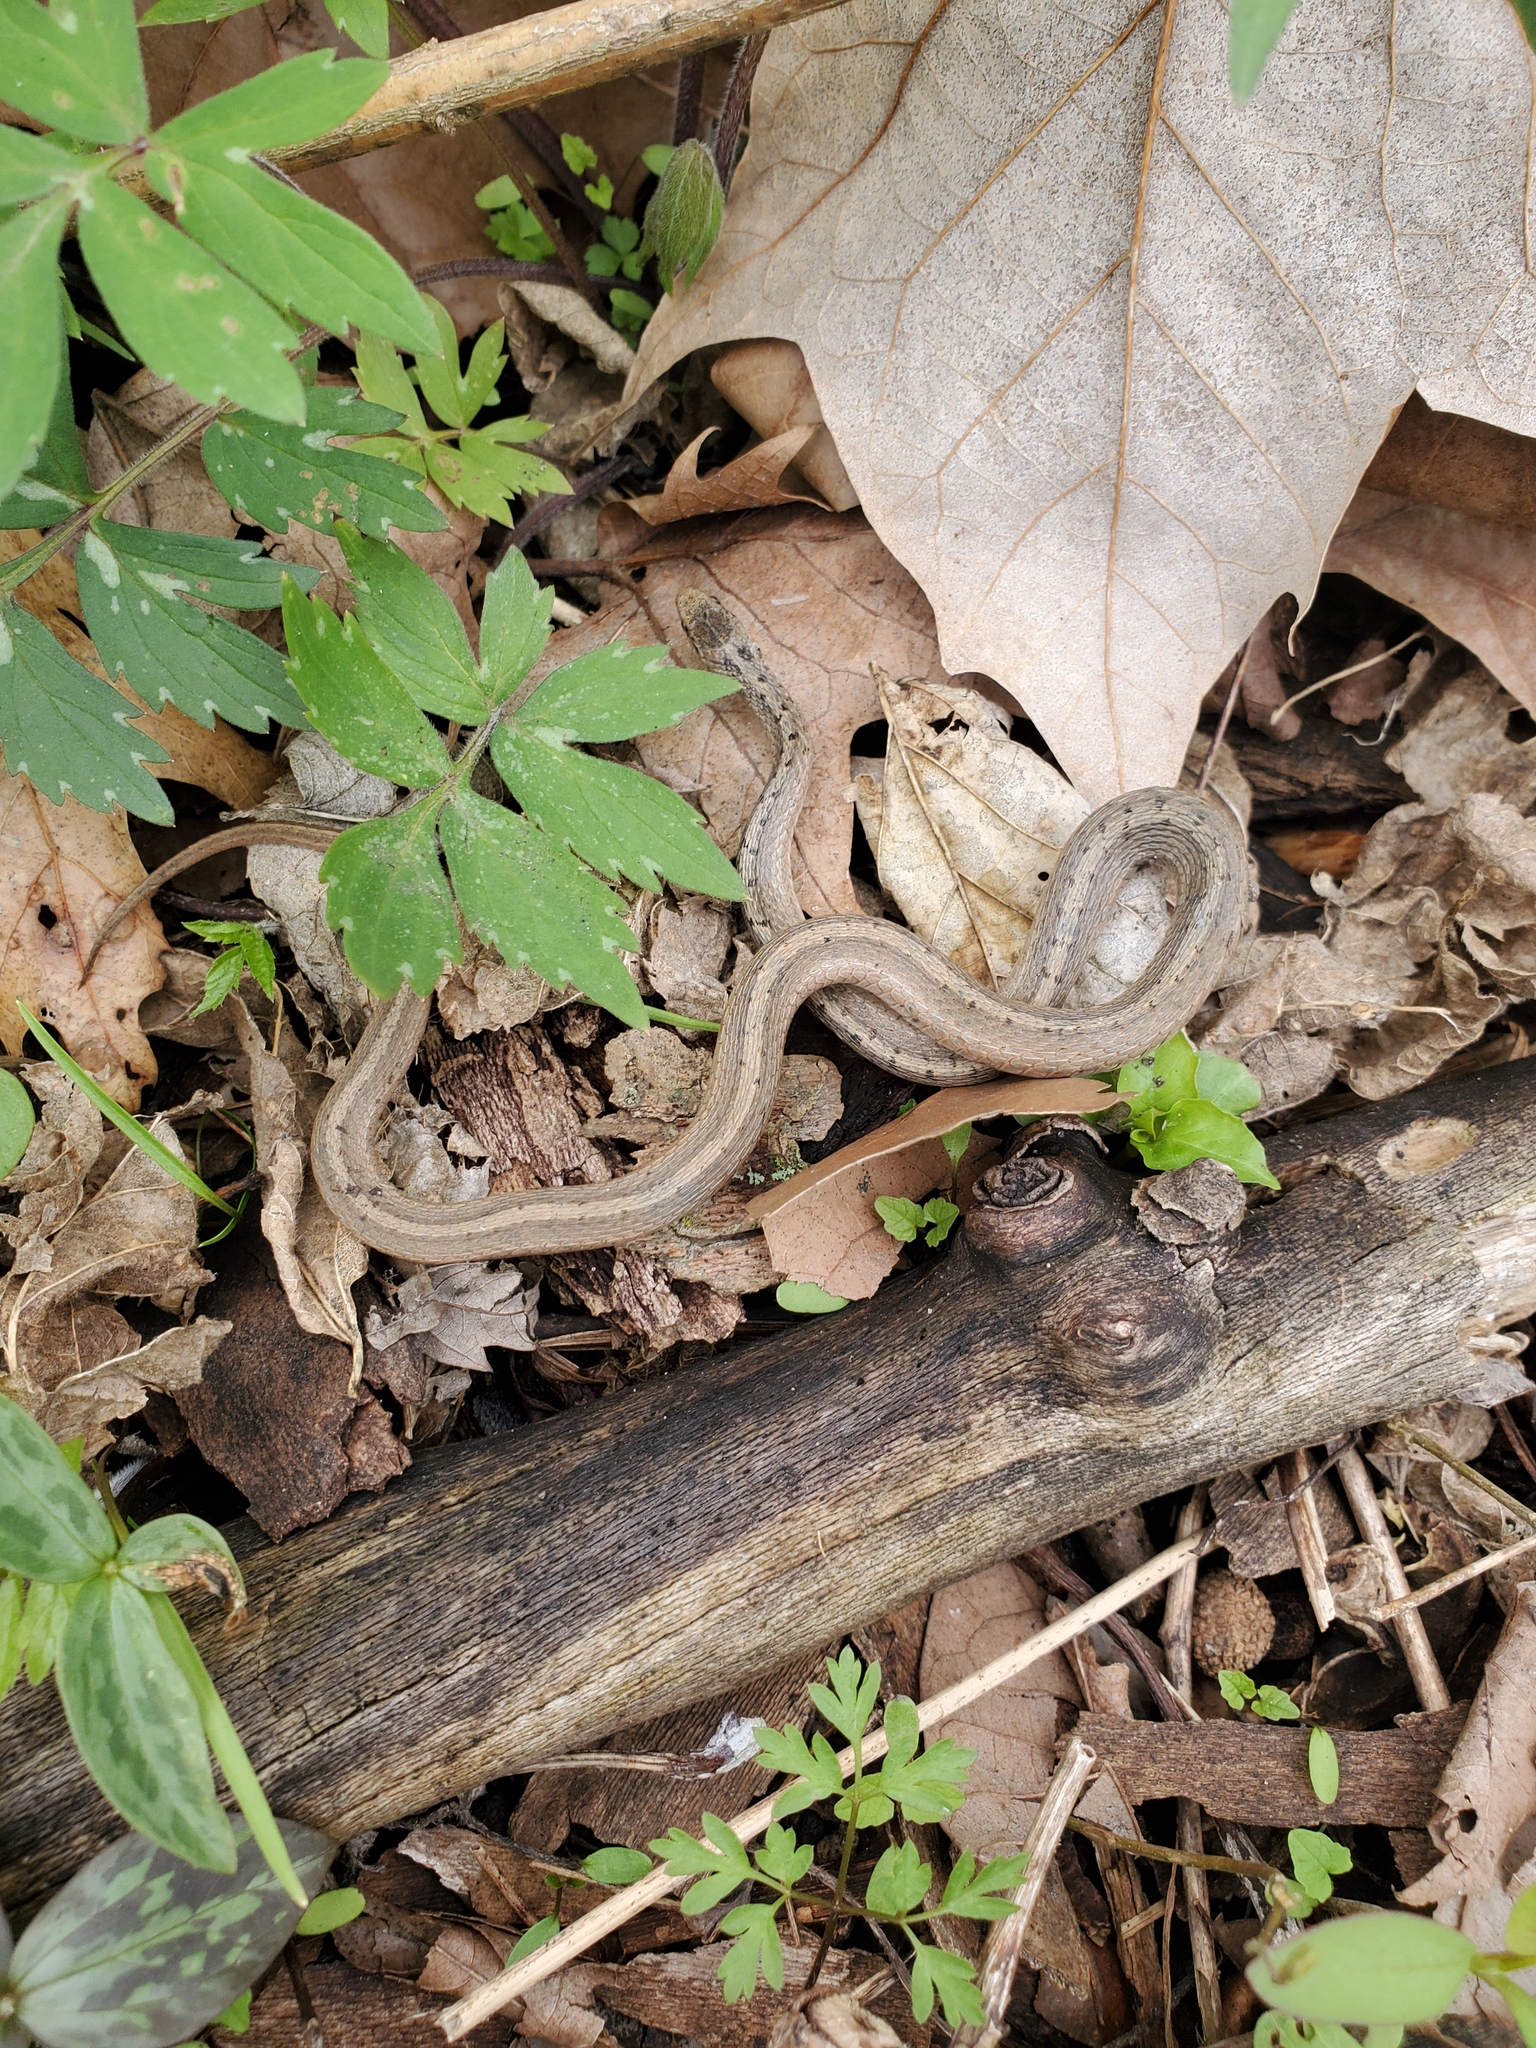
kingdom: Animalia
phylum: Chordata
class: Squamata
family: Colubridae
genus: Storeria
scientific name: Storeria dekayi
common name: (dekay’s) brown snake
